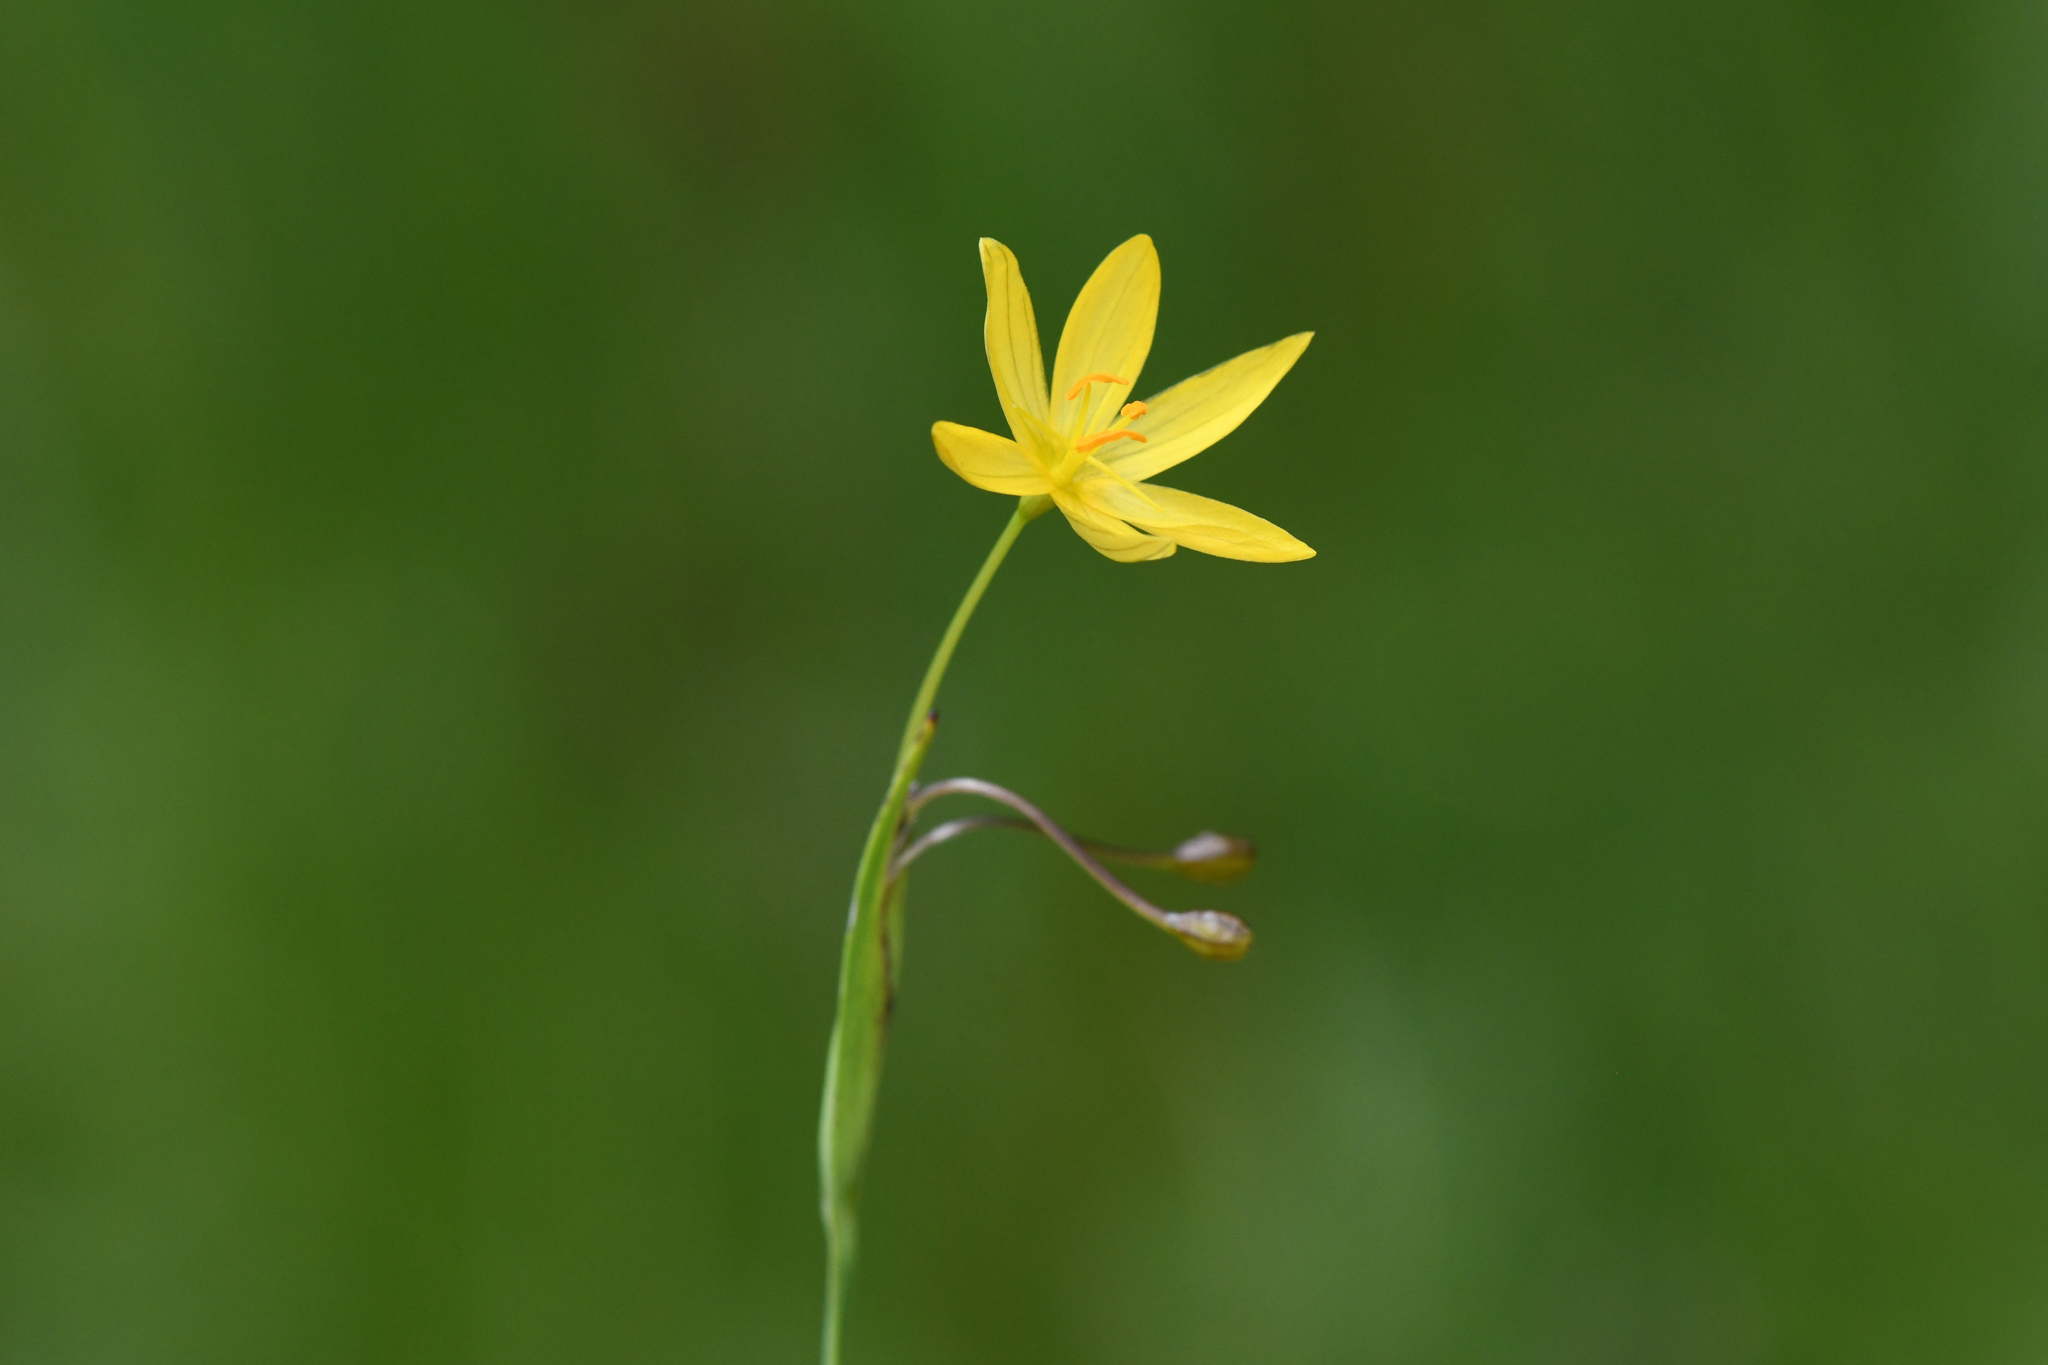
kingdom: Plantae
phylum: Tracheophyta
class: Liliopsida
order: Asparagales
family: Iridaceae
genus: Sisyrinchium
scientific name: Sisyrinchium elmeri
